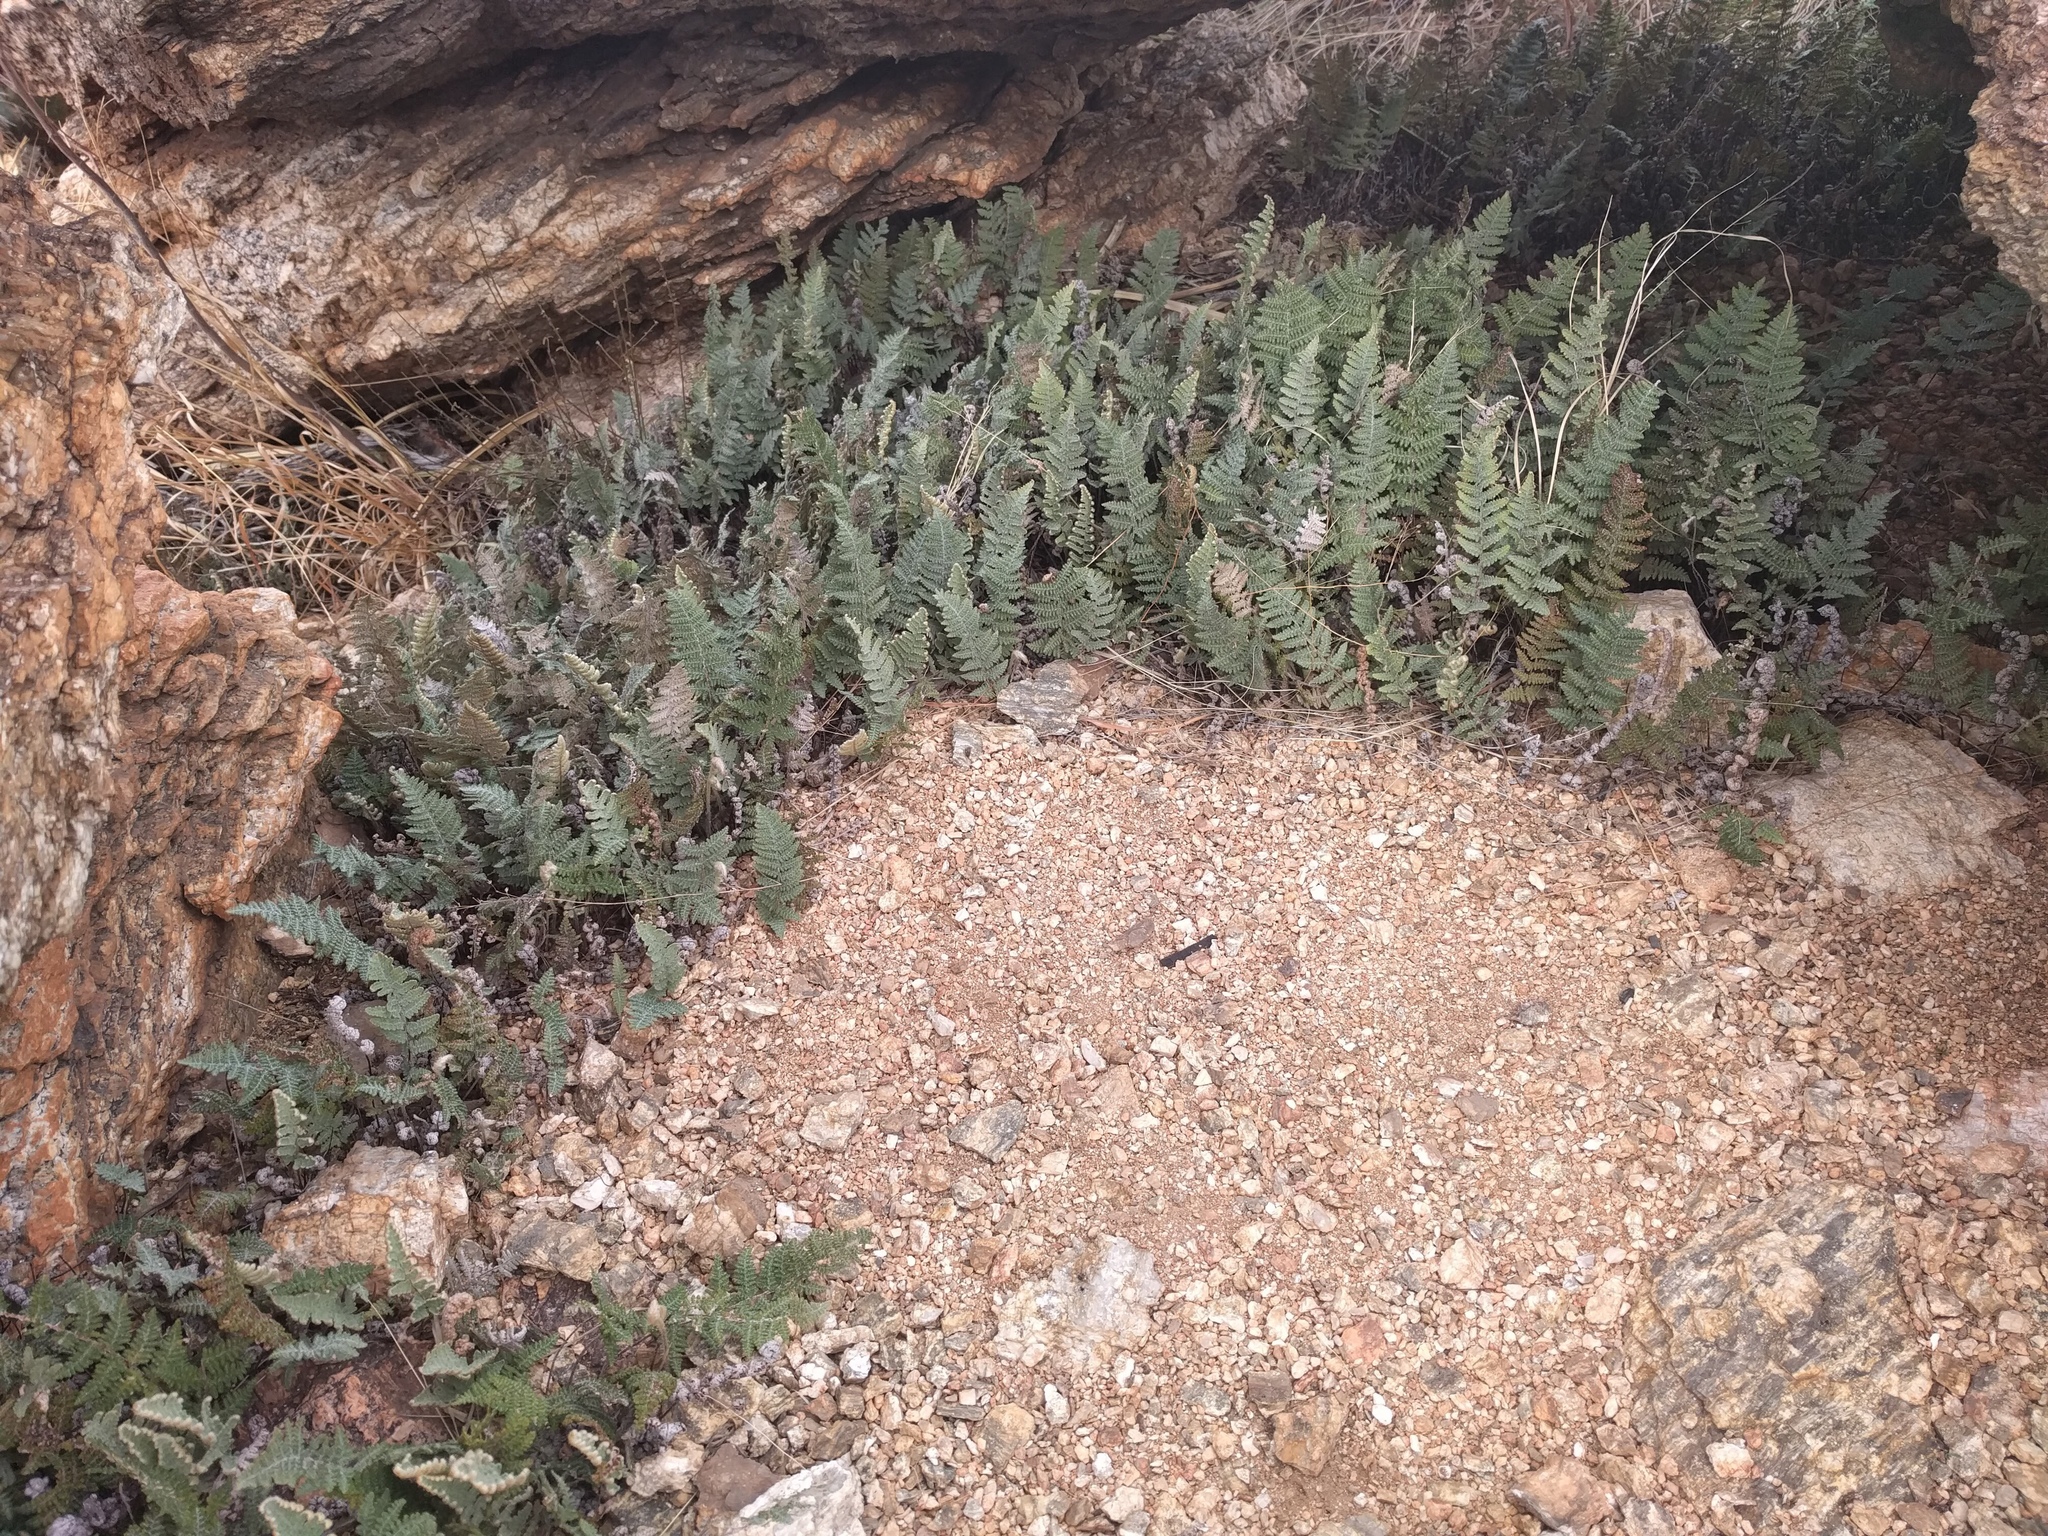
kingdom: Plantae
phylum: Tracheophyta
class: Polypodiopsida
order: Polypodiales
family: Pteridaceae
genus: Myriopteris
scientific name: Myriopteris lindheimeri
